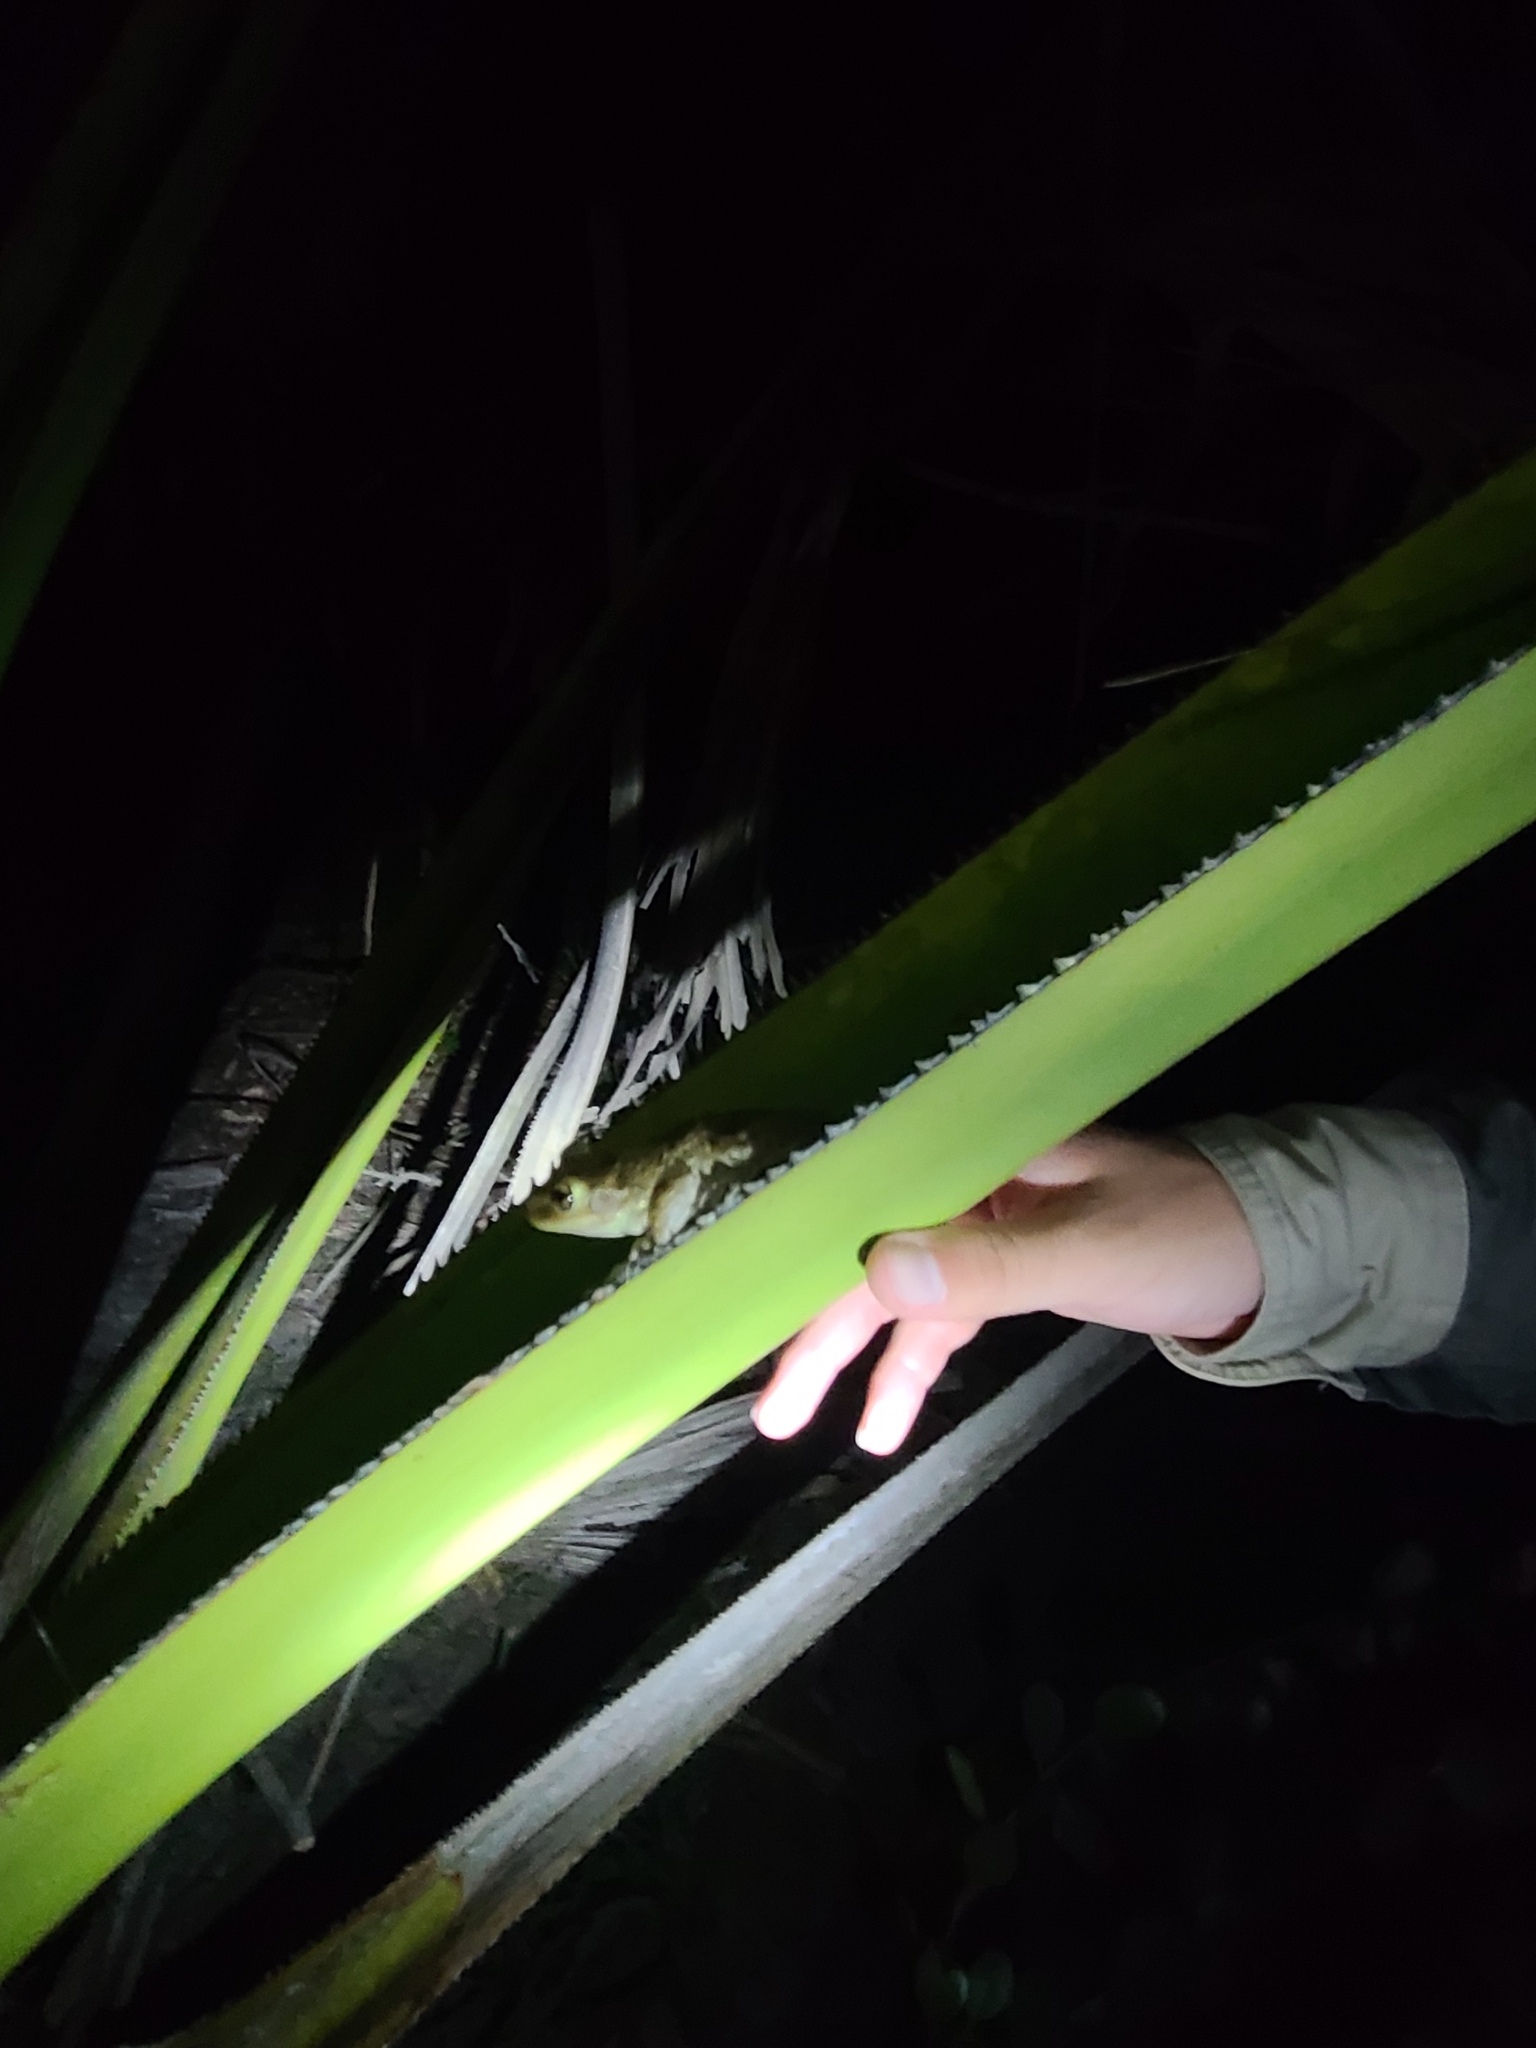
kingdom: Animalia
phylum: Chordata
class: Amphibia
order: Anura
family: Hylidae
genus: Osteopilus
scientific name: Osteopilus septentrionalis
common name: Cuban treefrog
